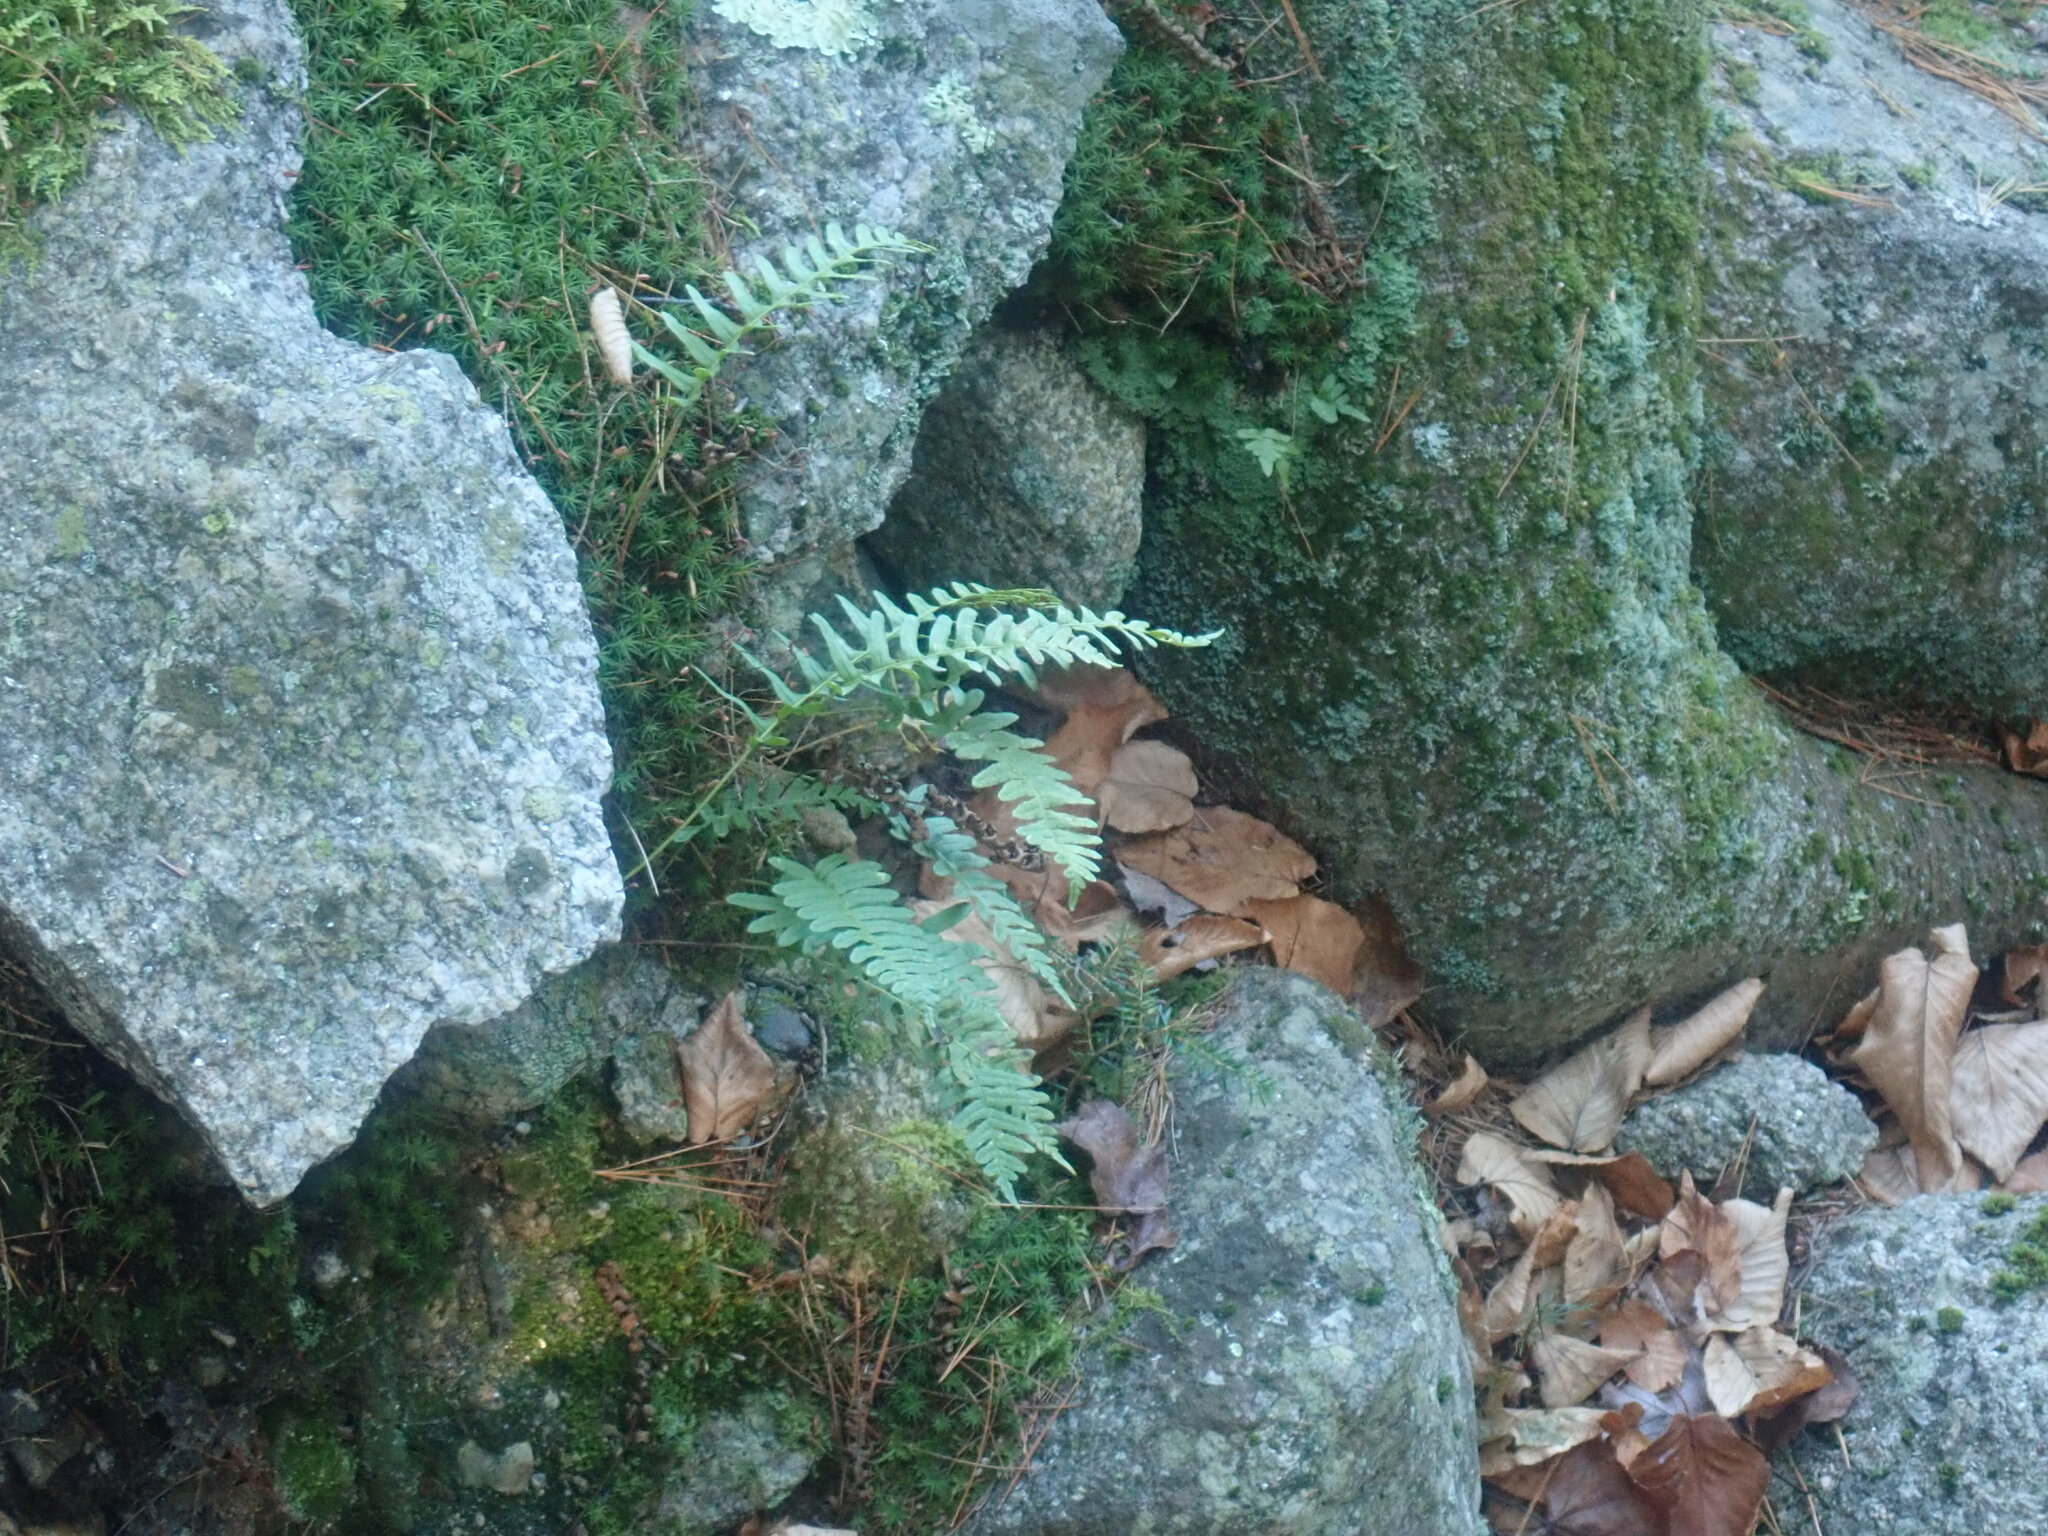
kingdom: Plantae
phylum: Tracheophyta
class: Polypodiopsida
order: Polypodiales
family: Polypodiaceae
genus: Polypodium
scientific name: Polypodium
